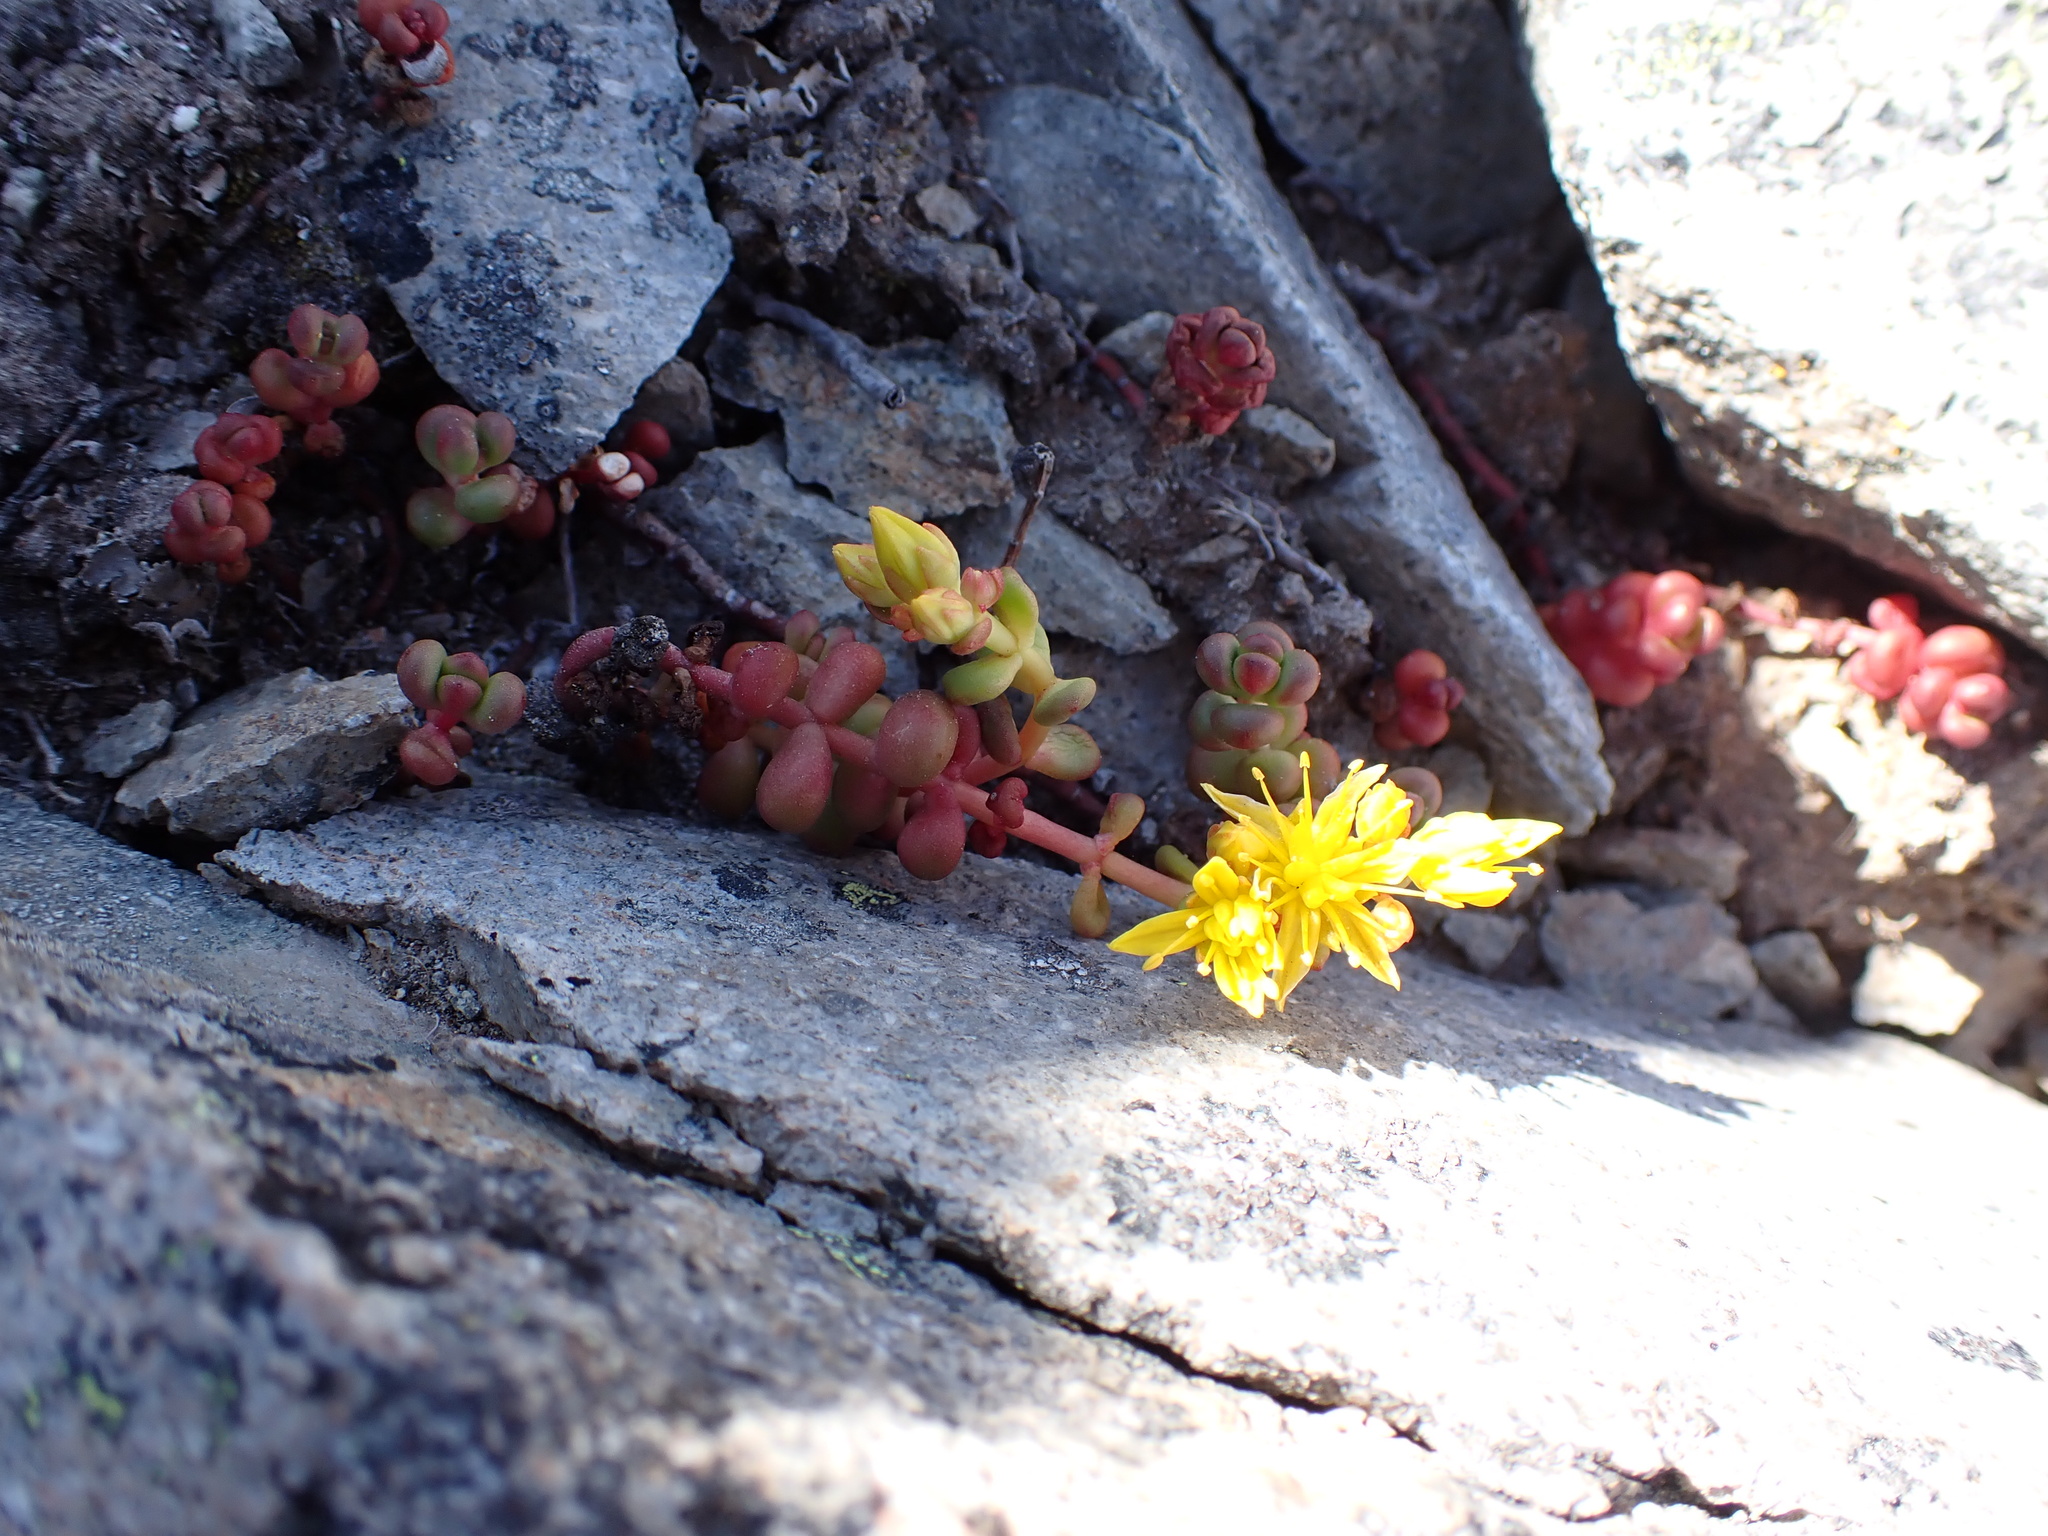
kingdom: Plantae
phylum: Tracheophyta
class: Magnoliopsida
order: Saxifragales
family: Crassulaceae
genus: Sedum
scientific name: Sedum divergens
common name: Cascade stonecrop
